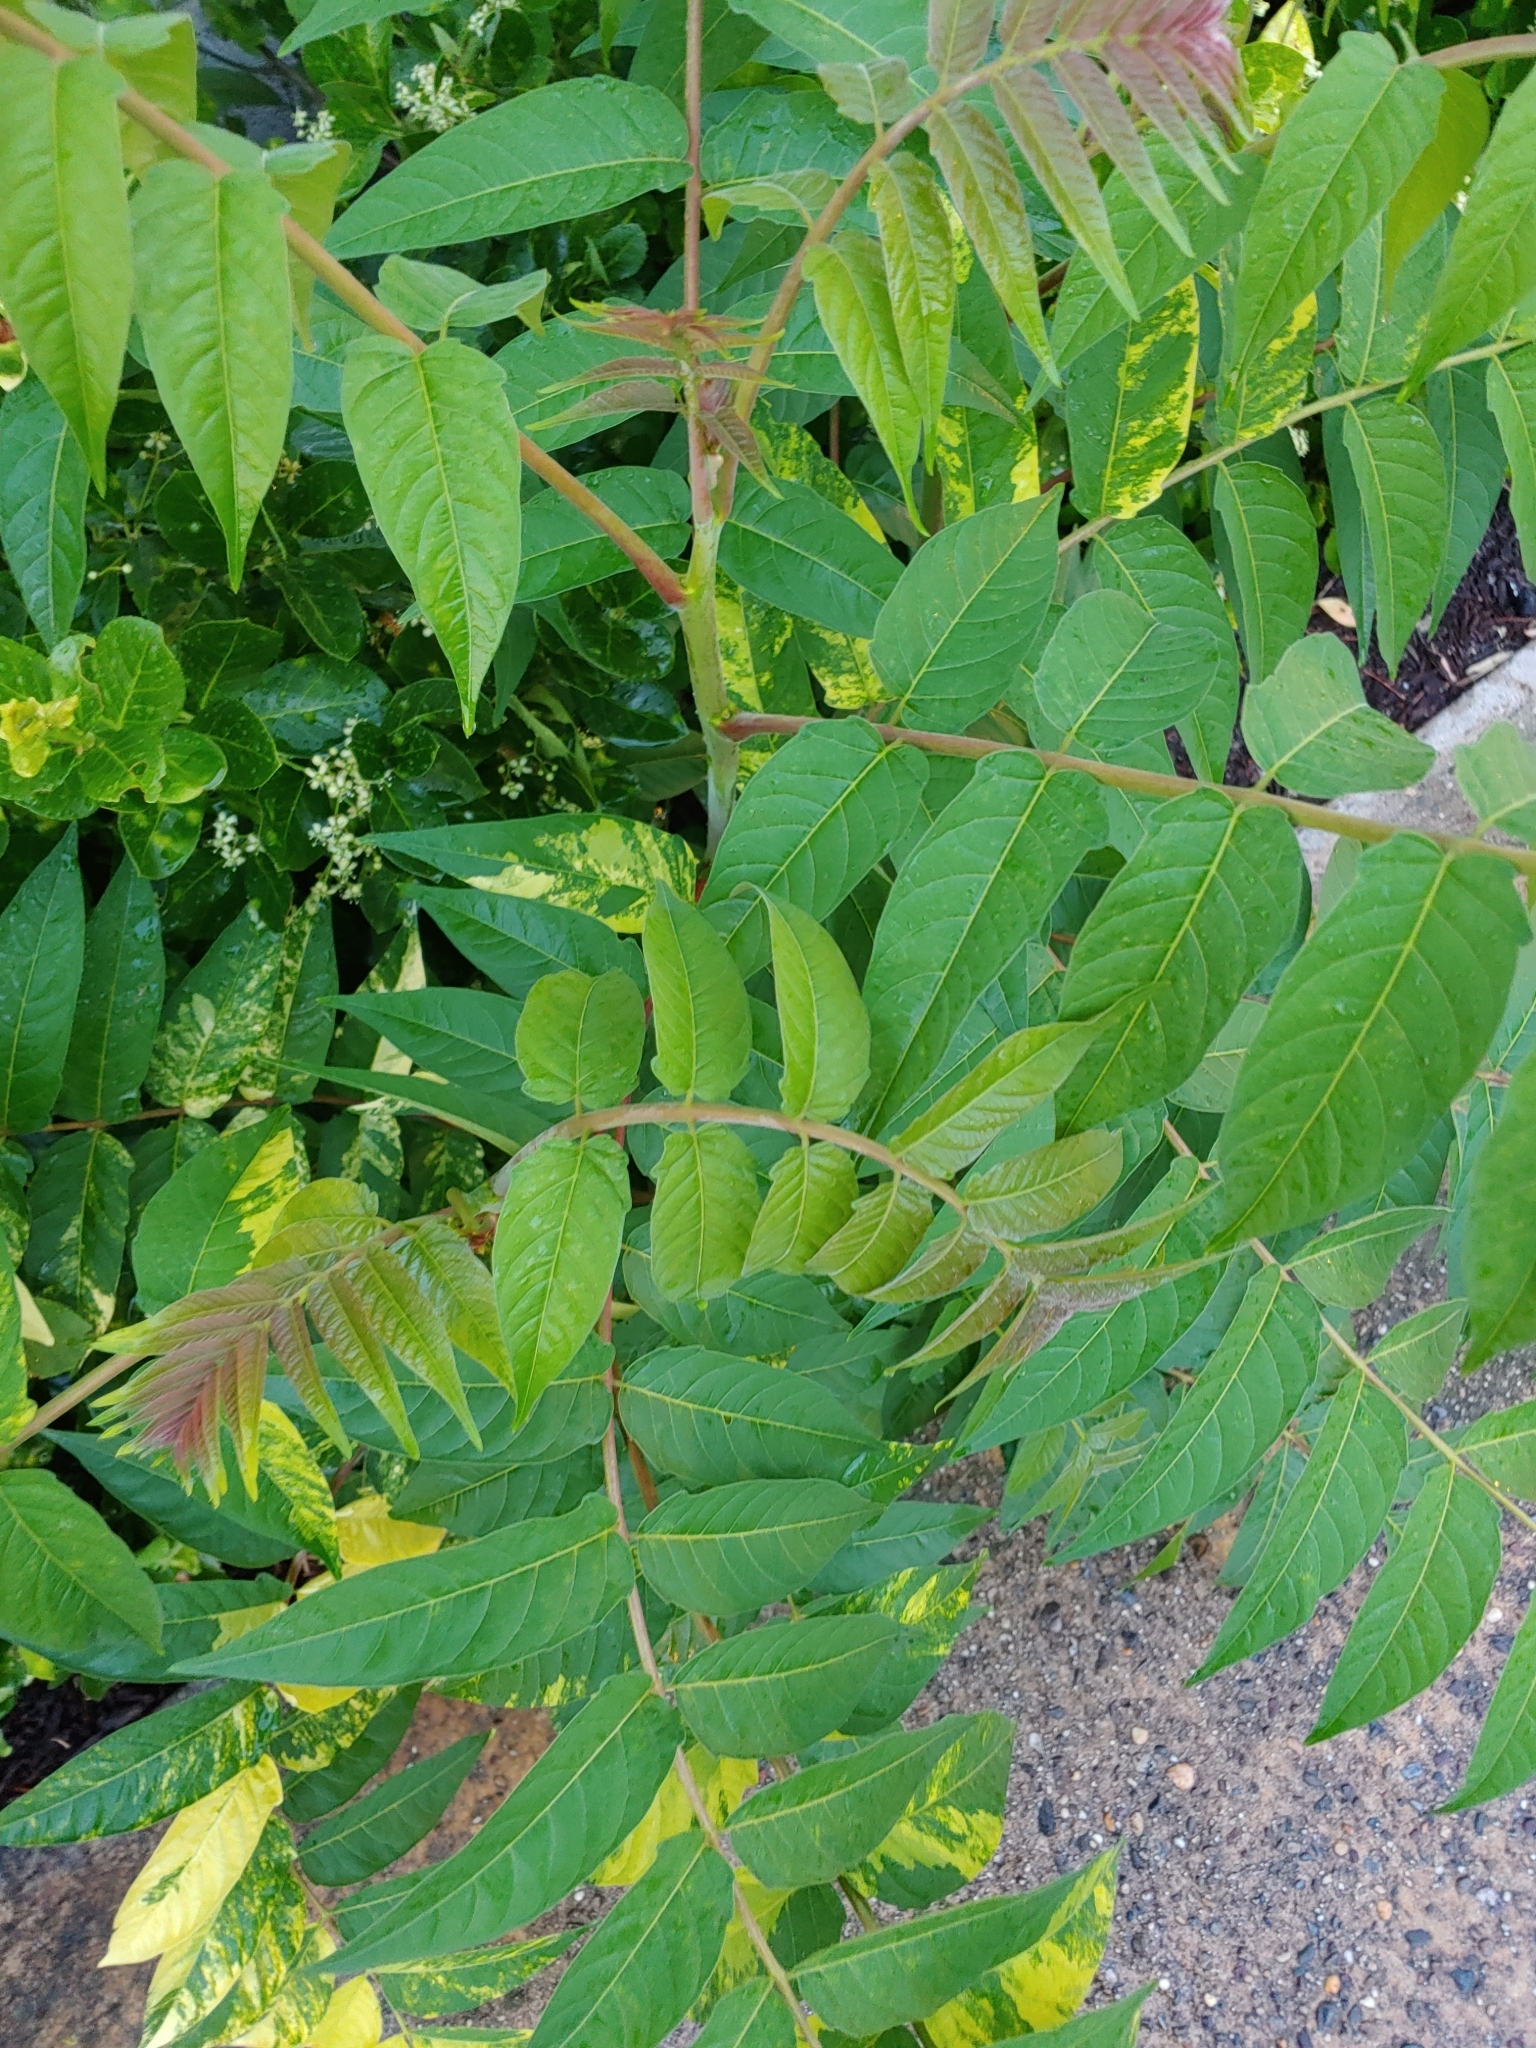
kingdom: Plantae
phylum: Tracheophyta
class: Magnoliopsida
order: Sapindales
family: Simaroubaceae
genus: Ailanthus
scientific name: Ailanthus altissima
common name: Tree-of-heaven
